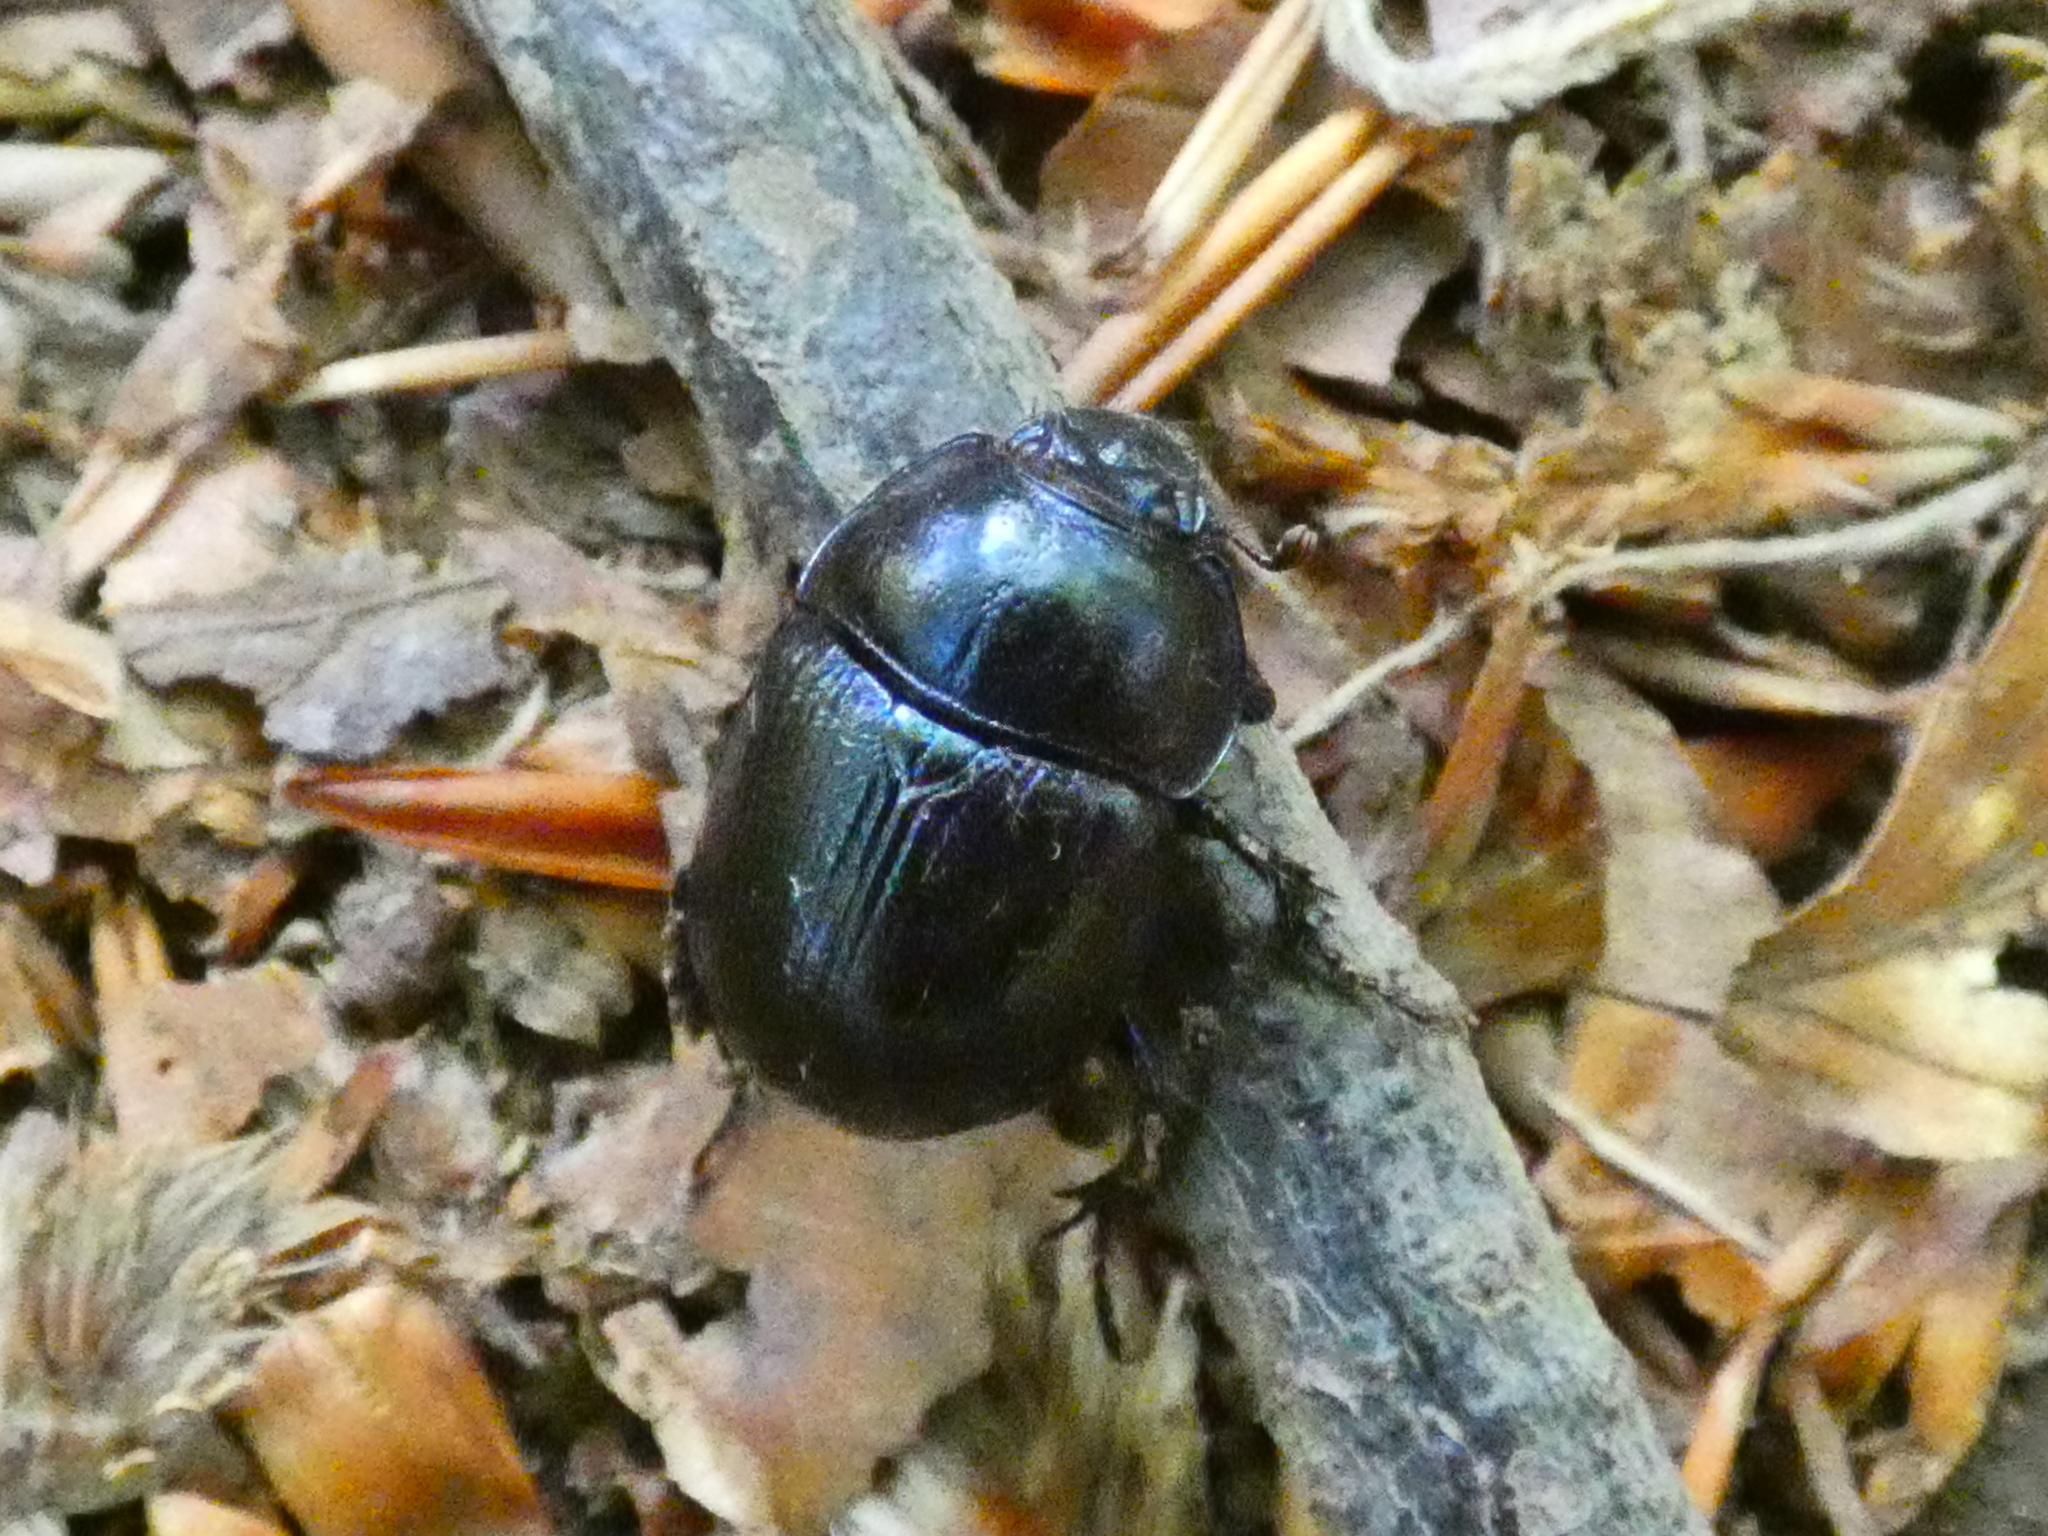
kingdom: Animalia
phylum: Arthropoda
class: Insecta
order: Coleoptera
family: Geotrupidae
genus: Anoplotrupes
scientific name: Anoplotrupes stercorosus
